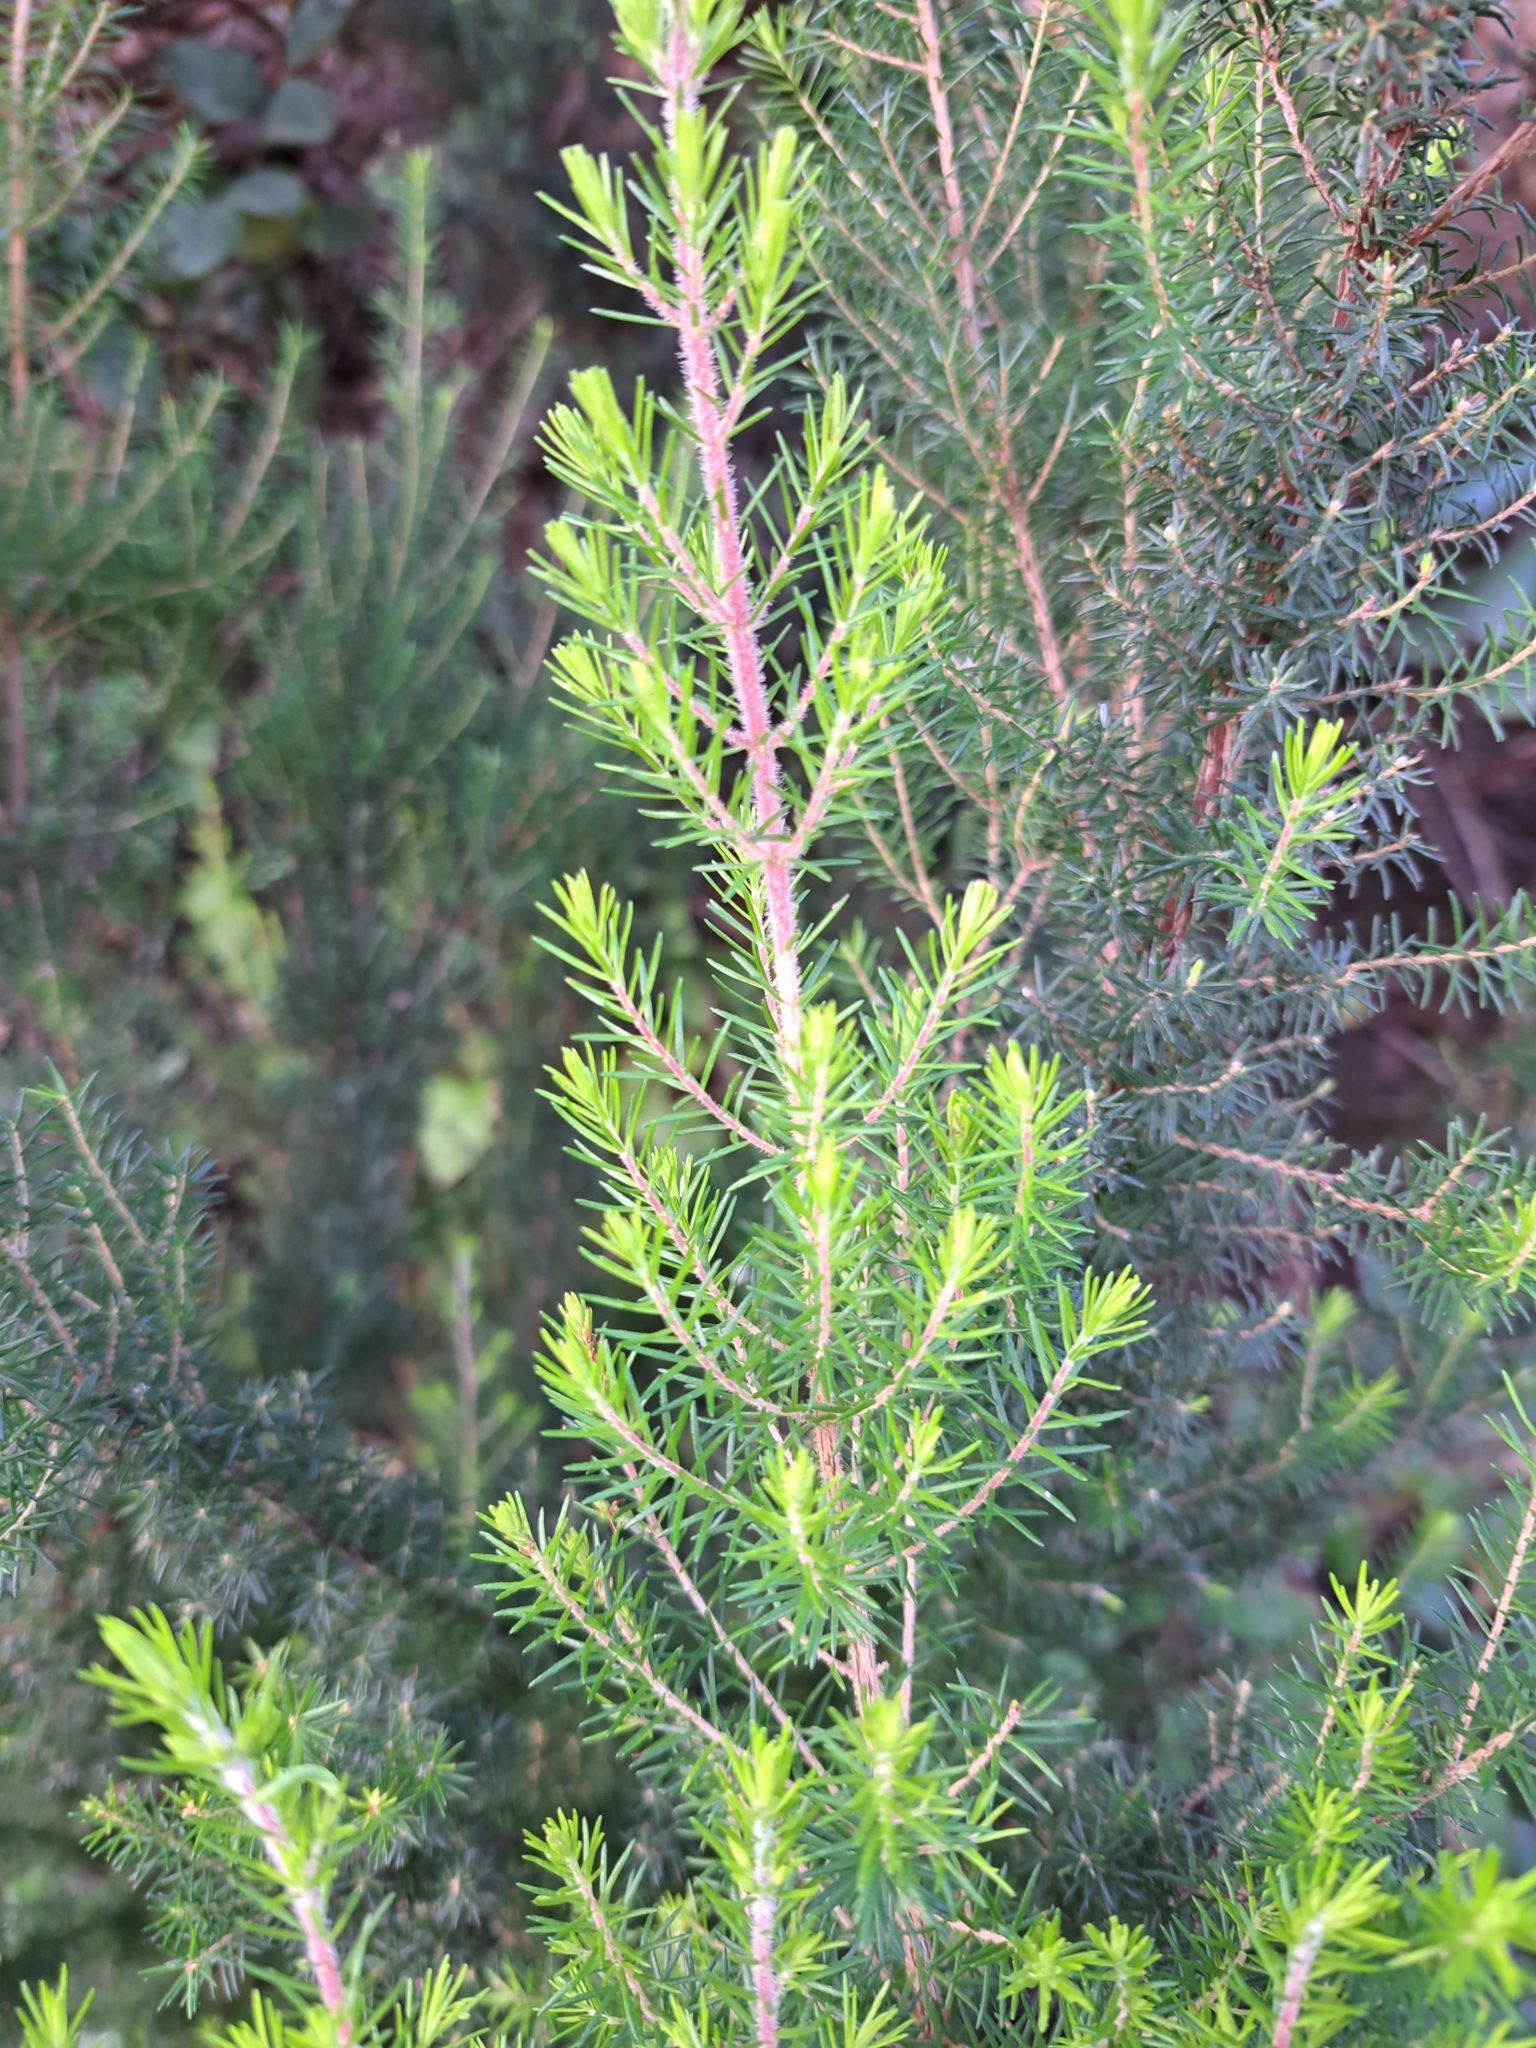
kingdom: Plantae
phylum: Tracheophyta
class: Magnoliopsida
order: Ericales
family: Ericaceae
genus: Erica
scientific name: Erica canariensis
